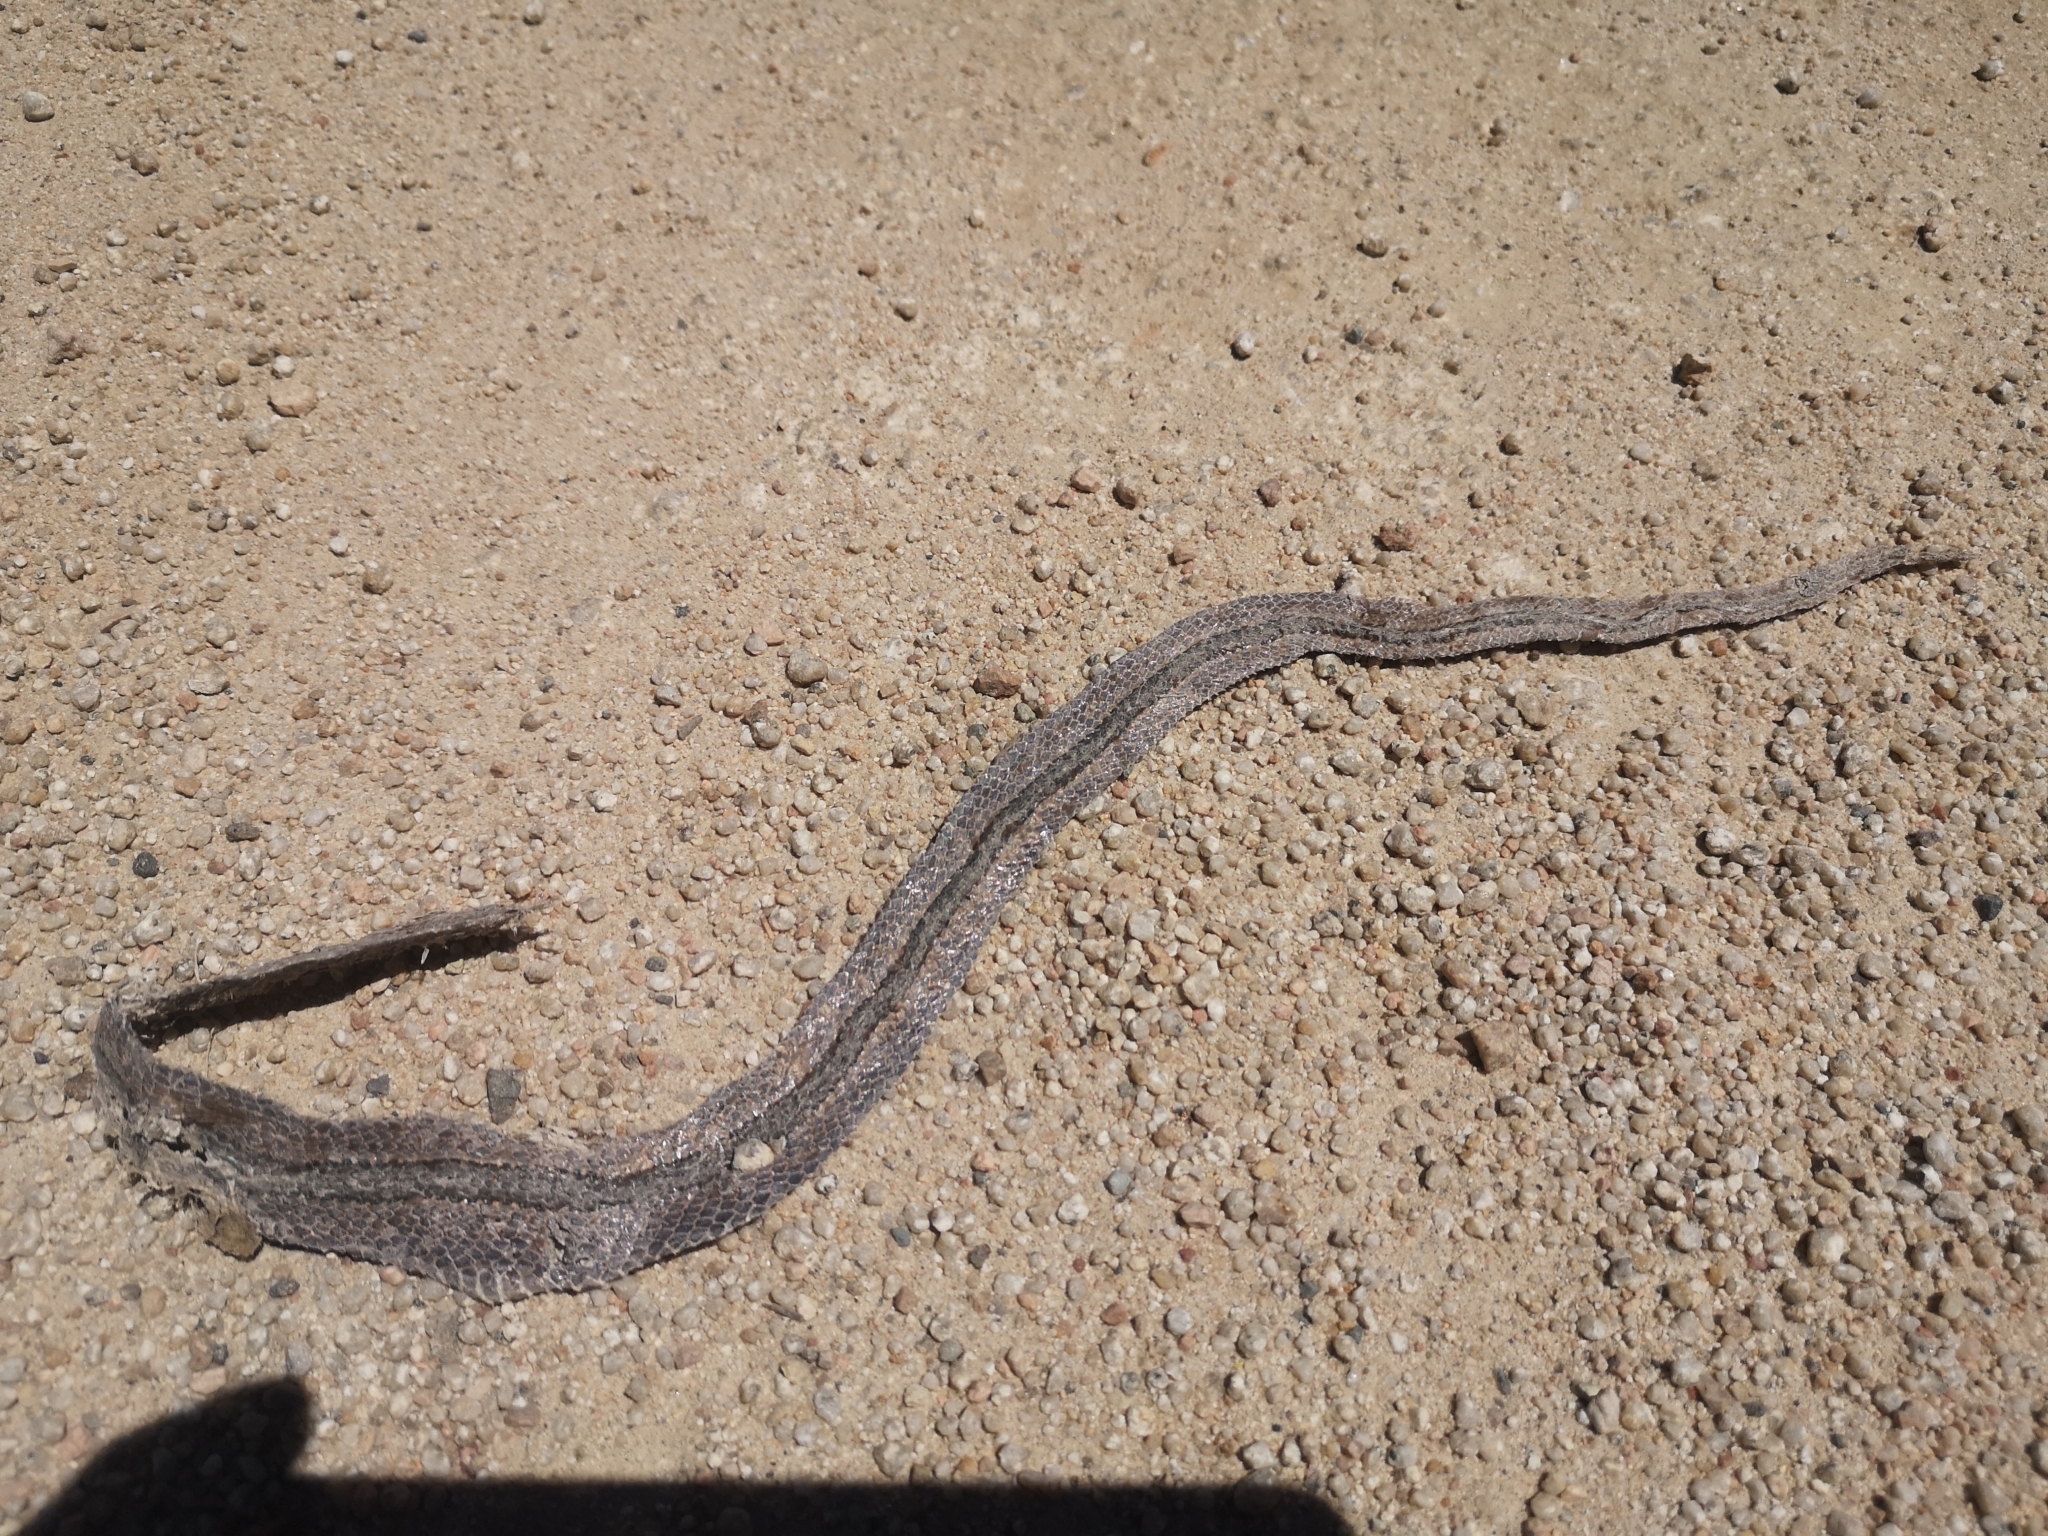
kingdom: Animalia
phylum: Chordata
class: Squamata
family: Colubridae
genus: Philodryas
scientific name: Philodryas chamissonis
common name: Chilean green racer
